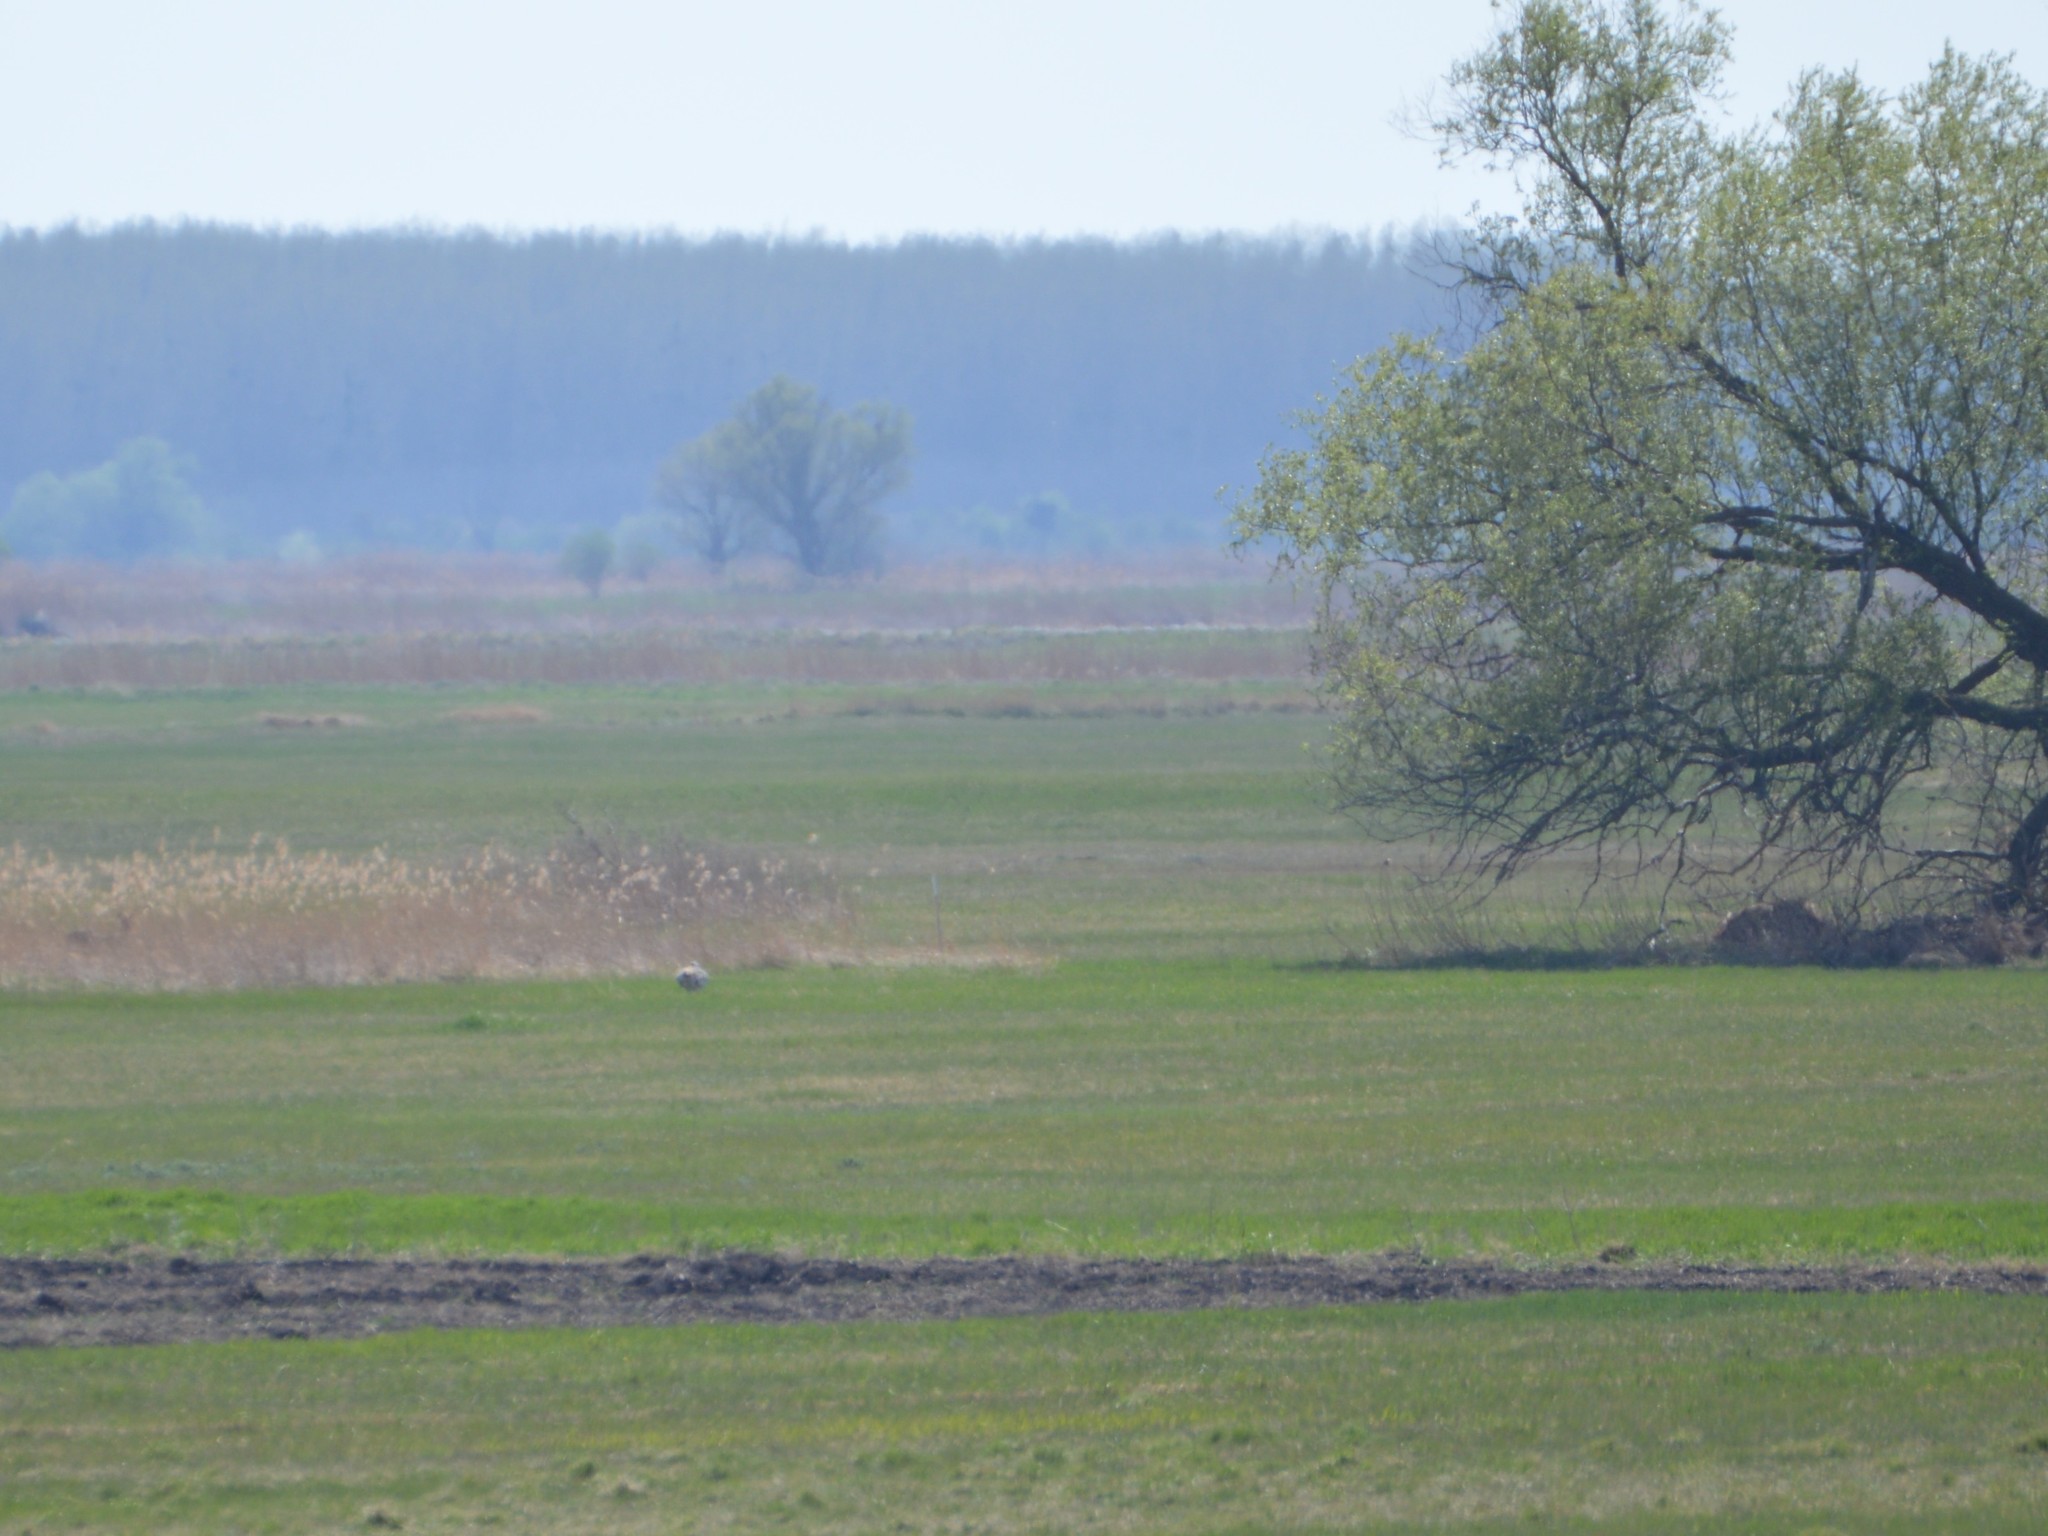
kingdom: Animalia
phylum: Chordata
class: Aves
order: Otidiformes
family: Otididae
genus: Otis
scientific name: Otis tarda
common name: Great bustard
